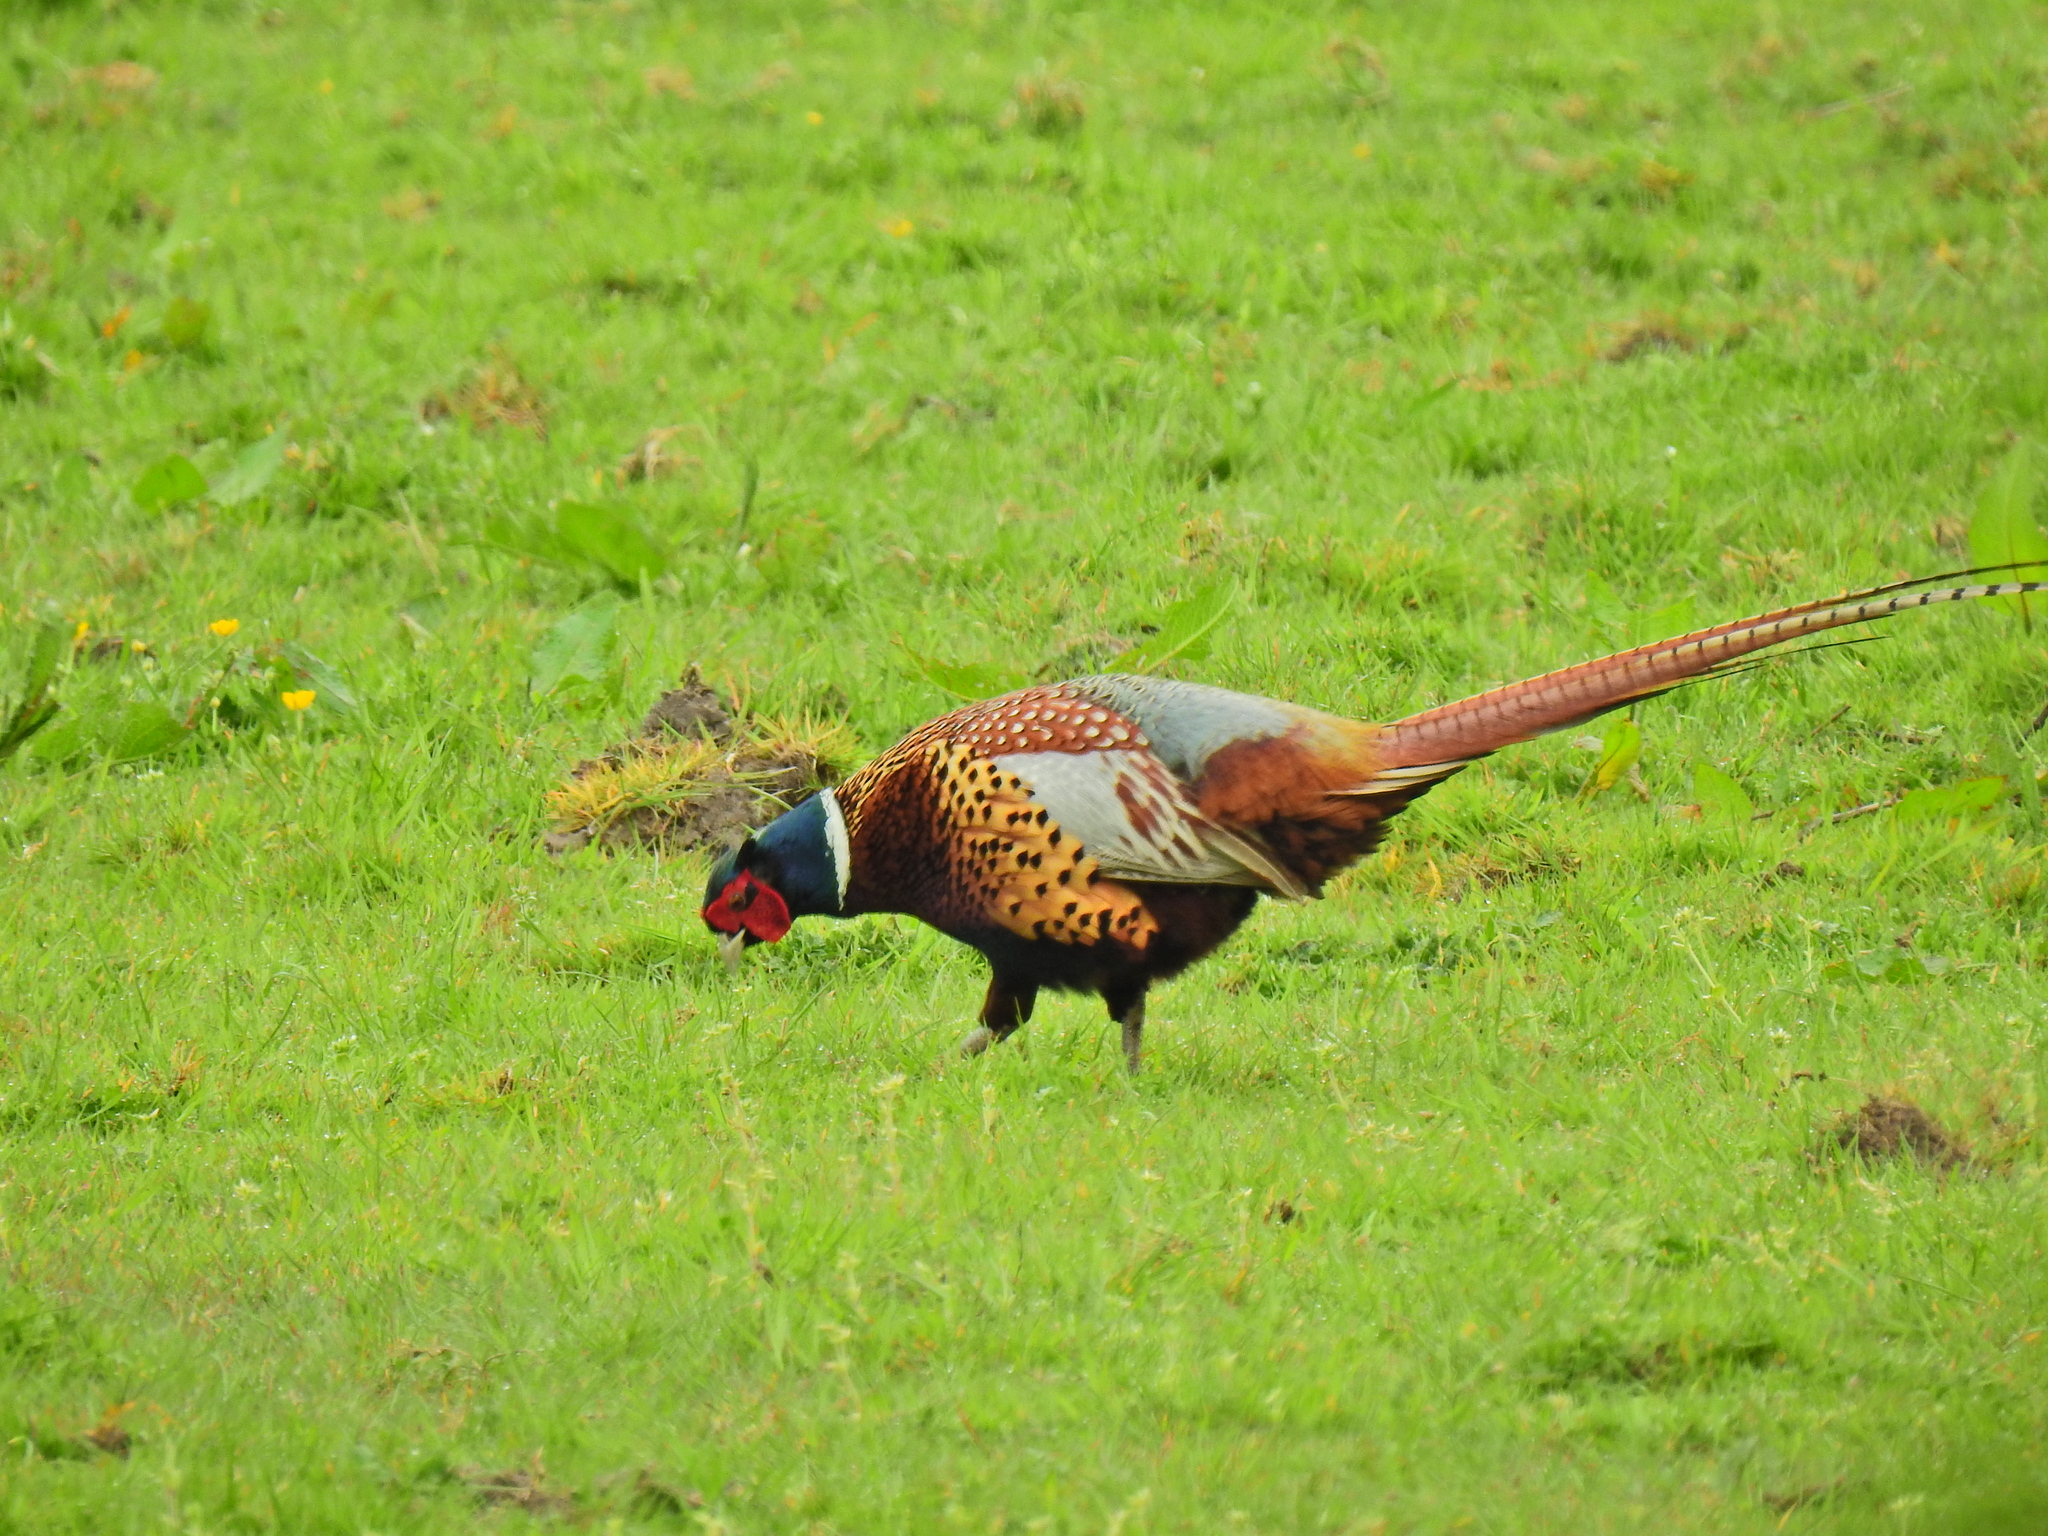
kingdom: Animalia
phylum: Chordata
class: Aves
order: Galliformes
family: Phasianidae
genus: Phasianus
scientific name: Phasianus colchicus
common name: Common pheasant
